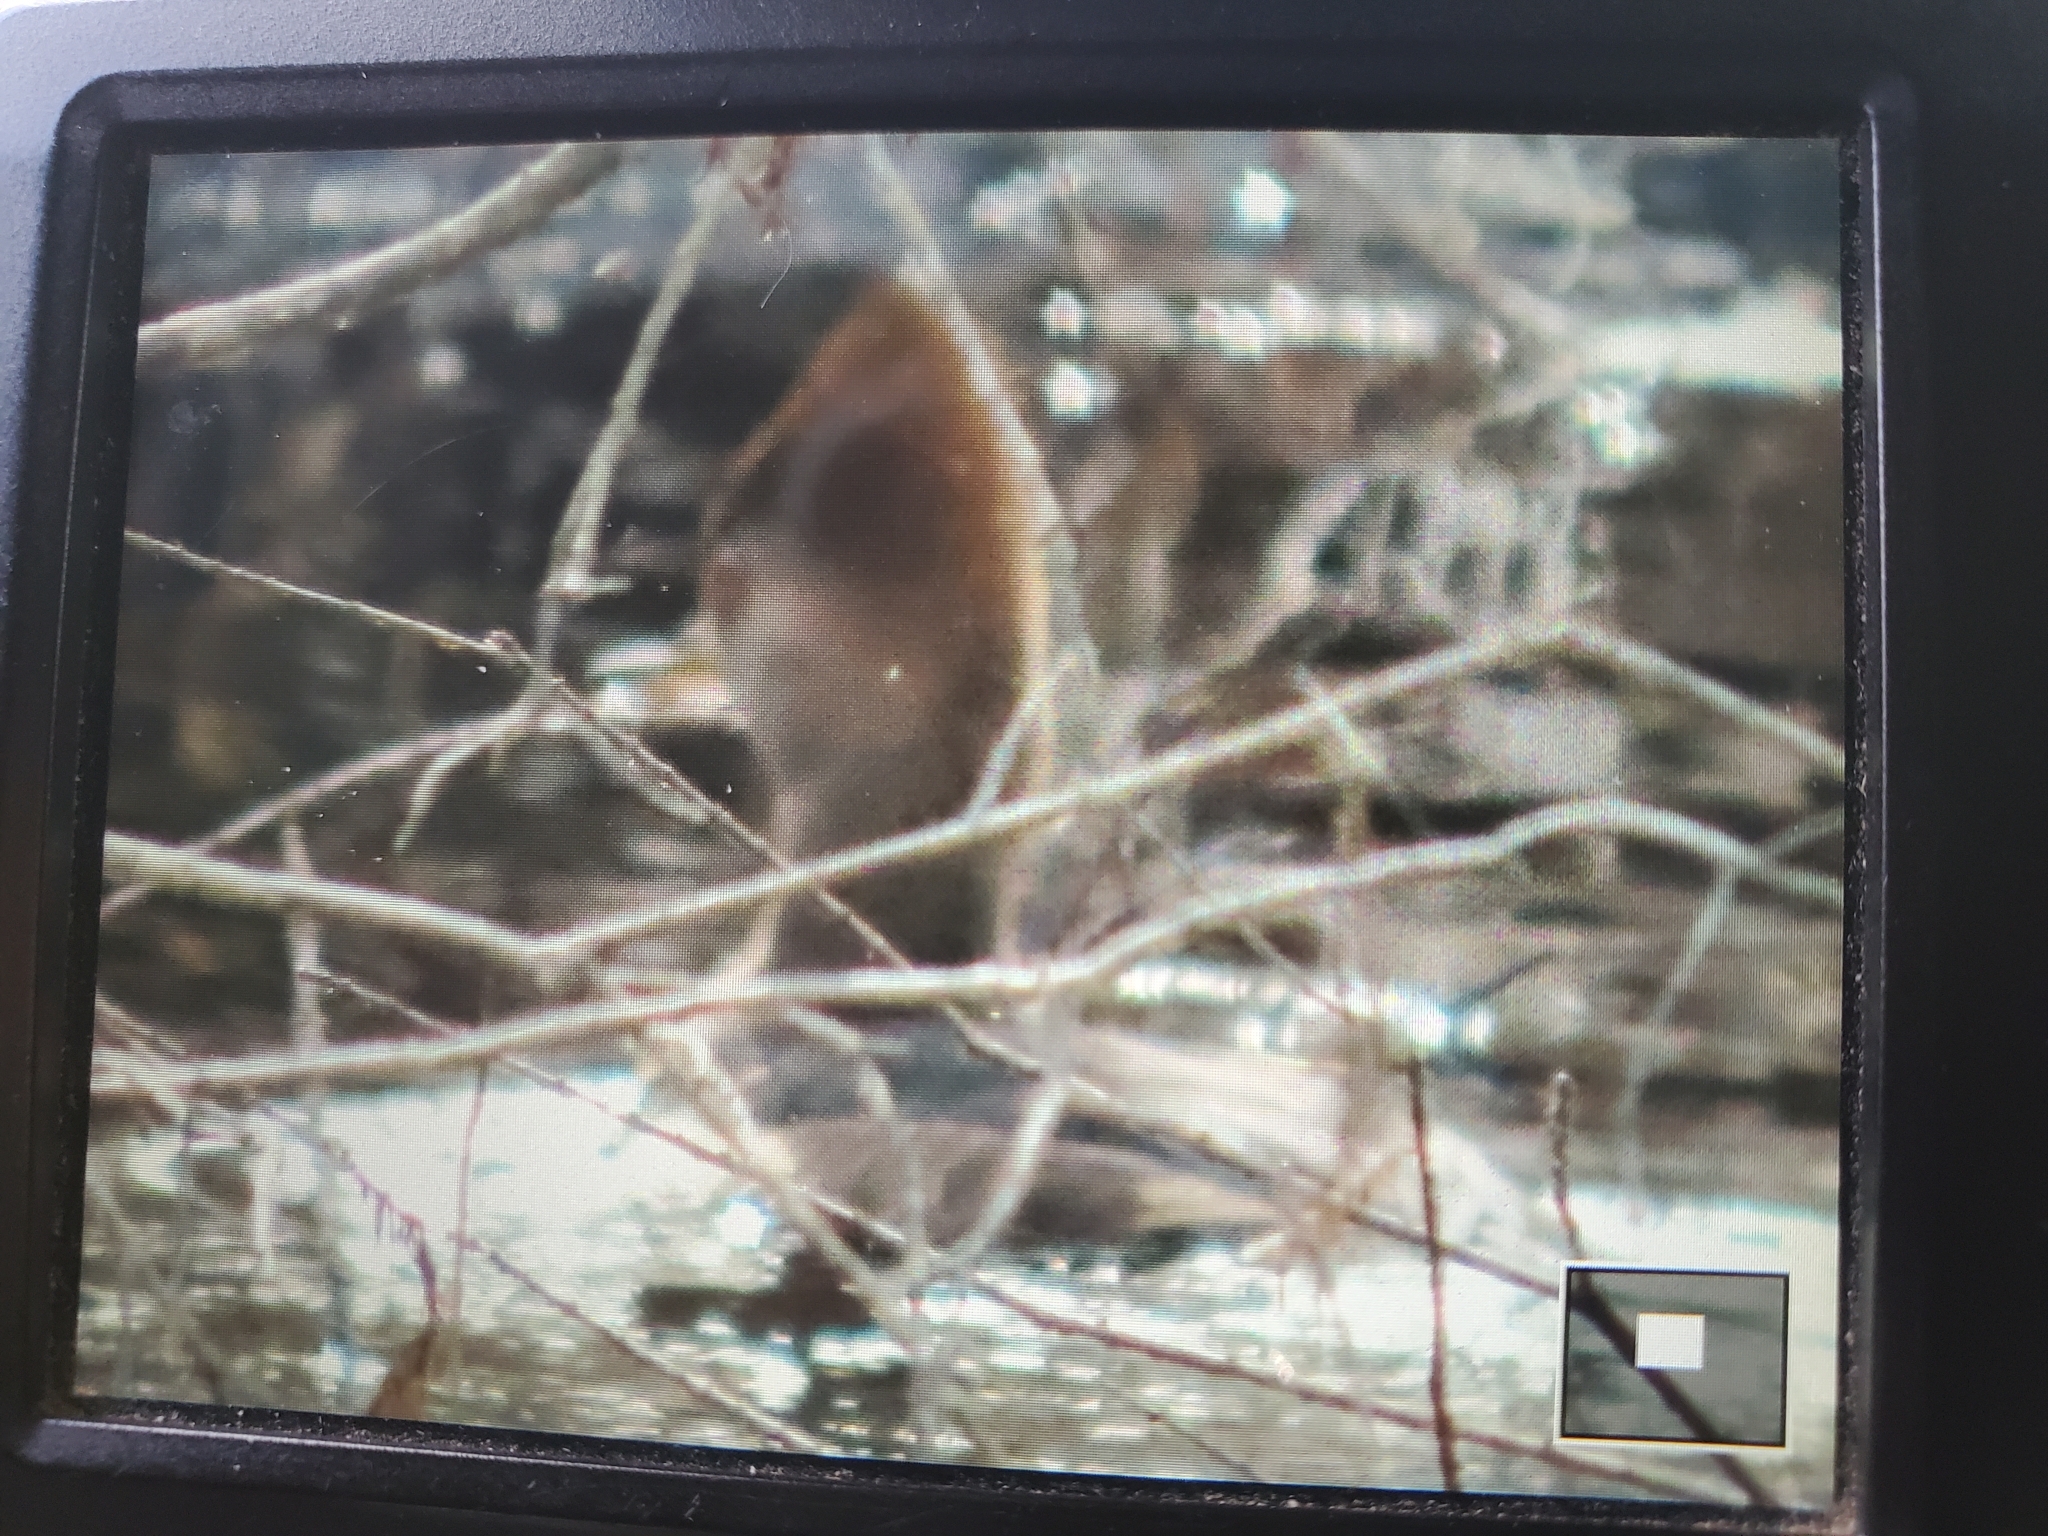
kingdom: Animalia
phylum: Chordata
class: Aves
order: Anseriformes
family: Anatidae
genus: Lophodytes
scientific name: Lophodytes cucullatus
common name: Hooded merganser
